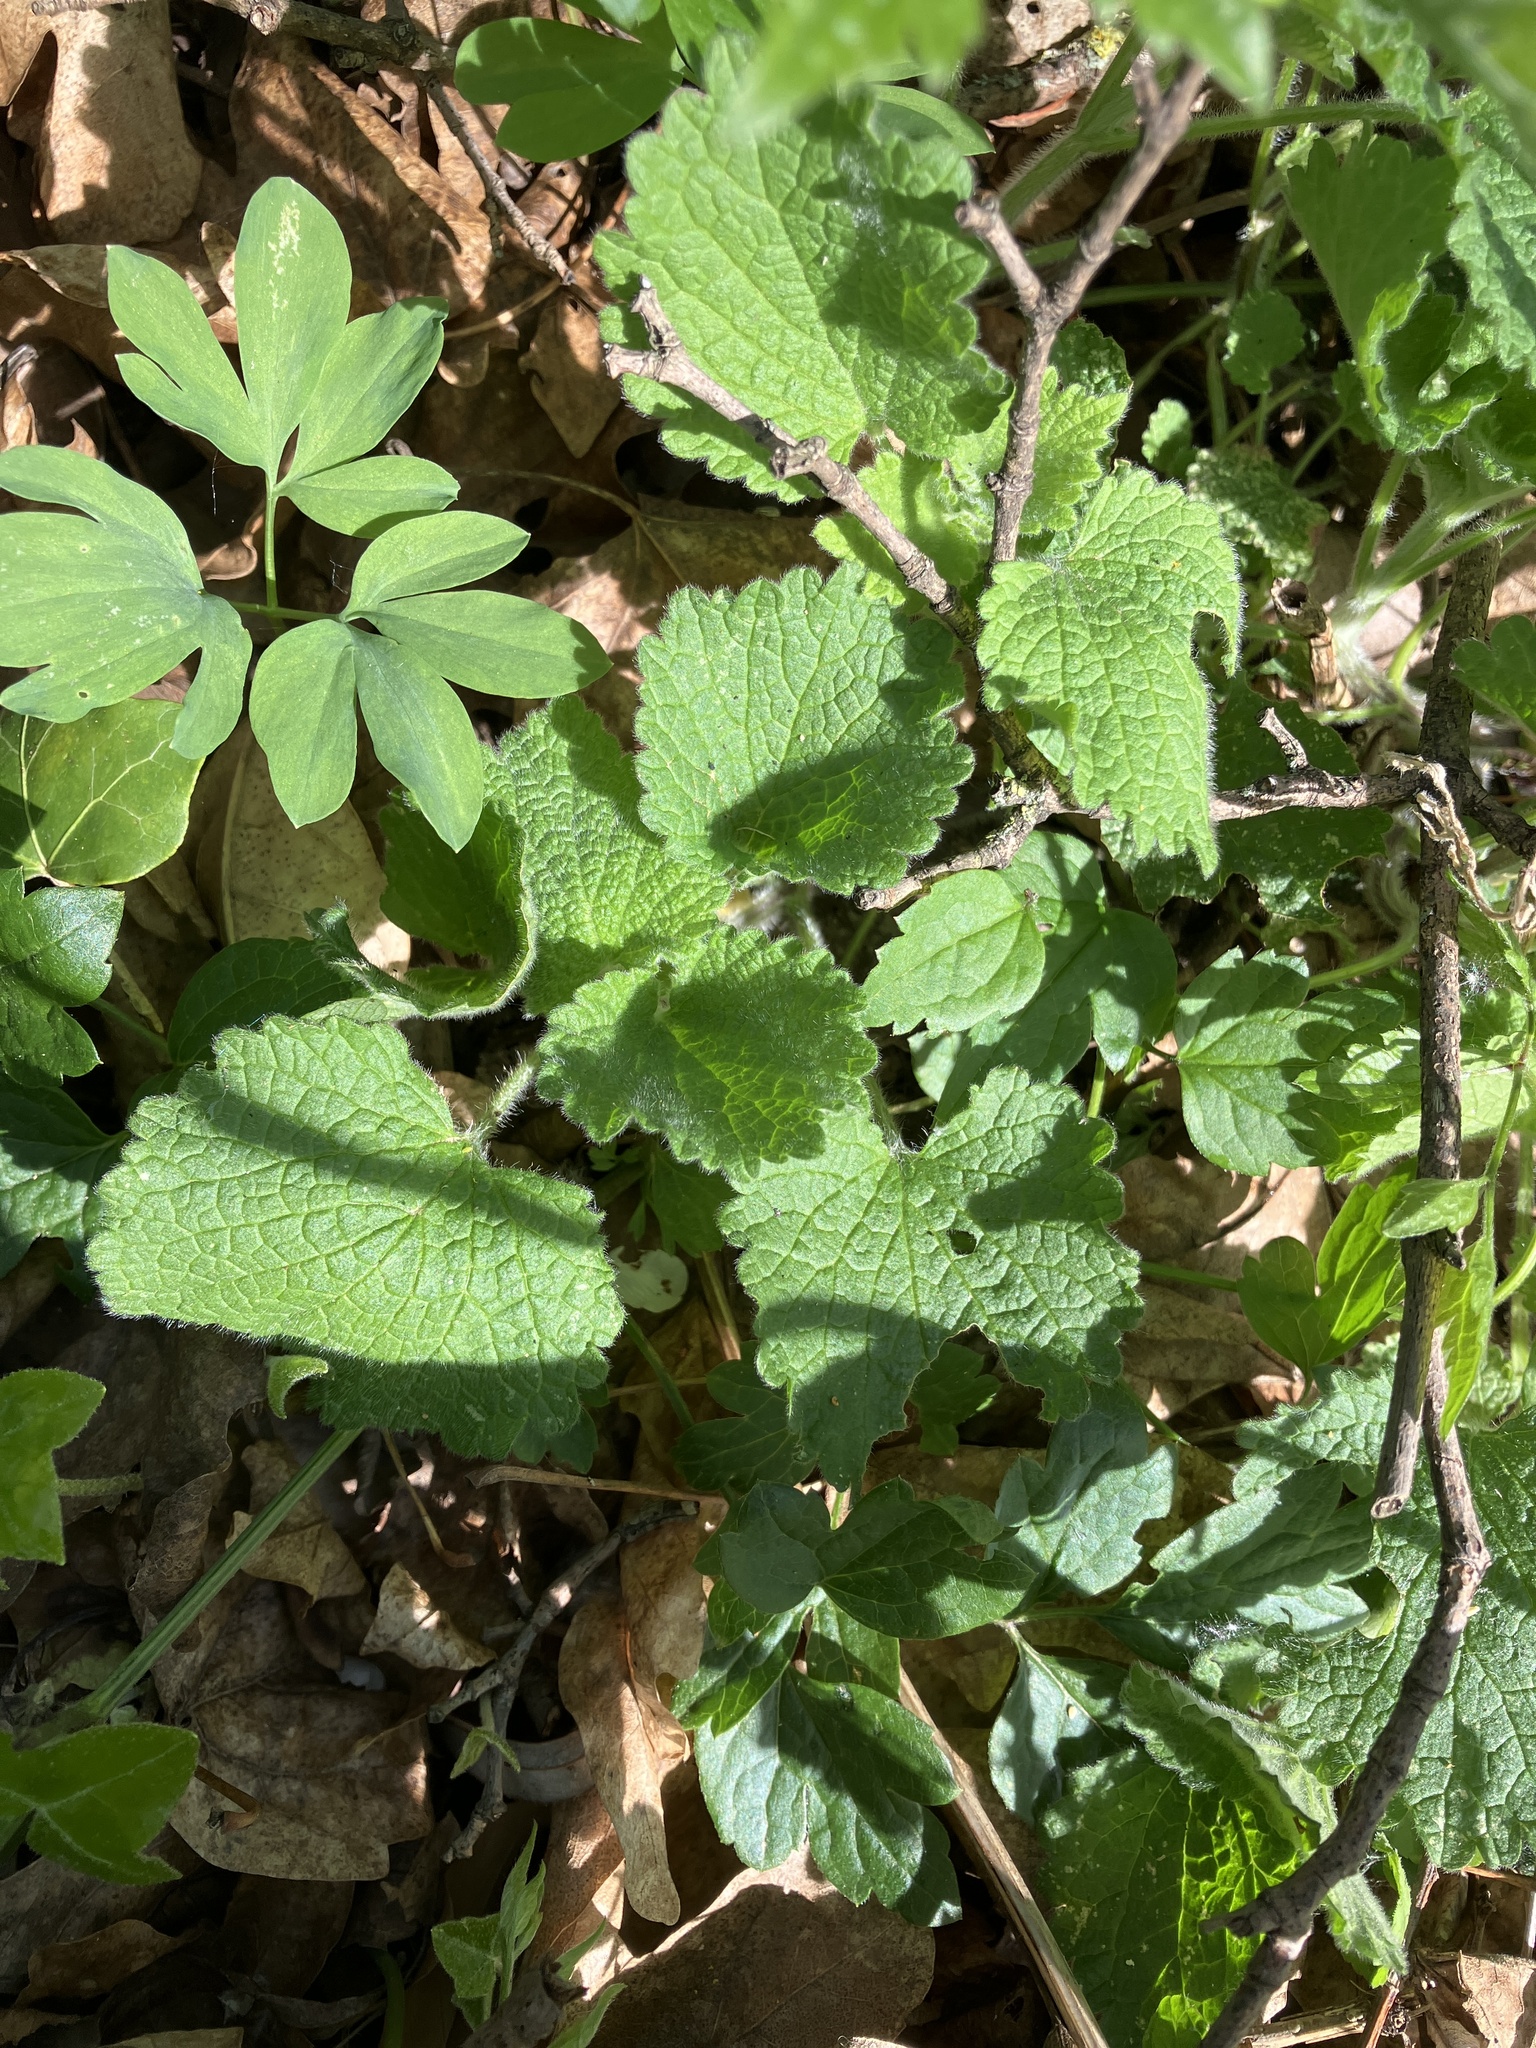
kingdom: Plantae
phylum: Tracheophyta
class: Magnoliopsida
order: Lamiales
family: Lamiaceae
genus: Ballota
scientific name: Ballota nigra
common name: Black horehound
